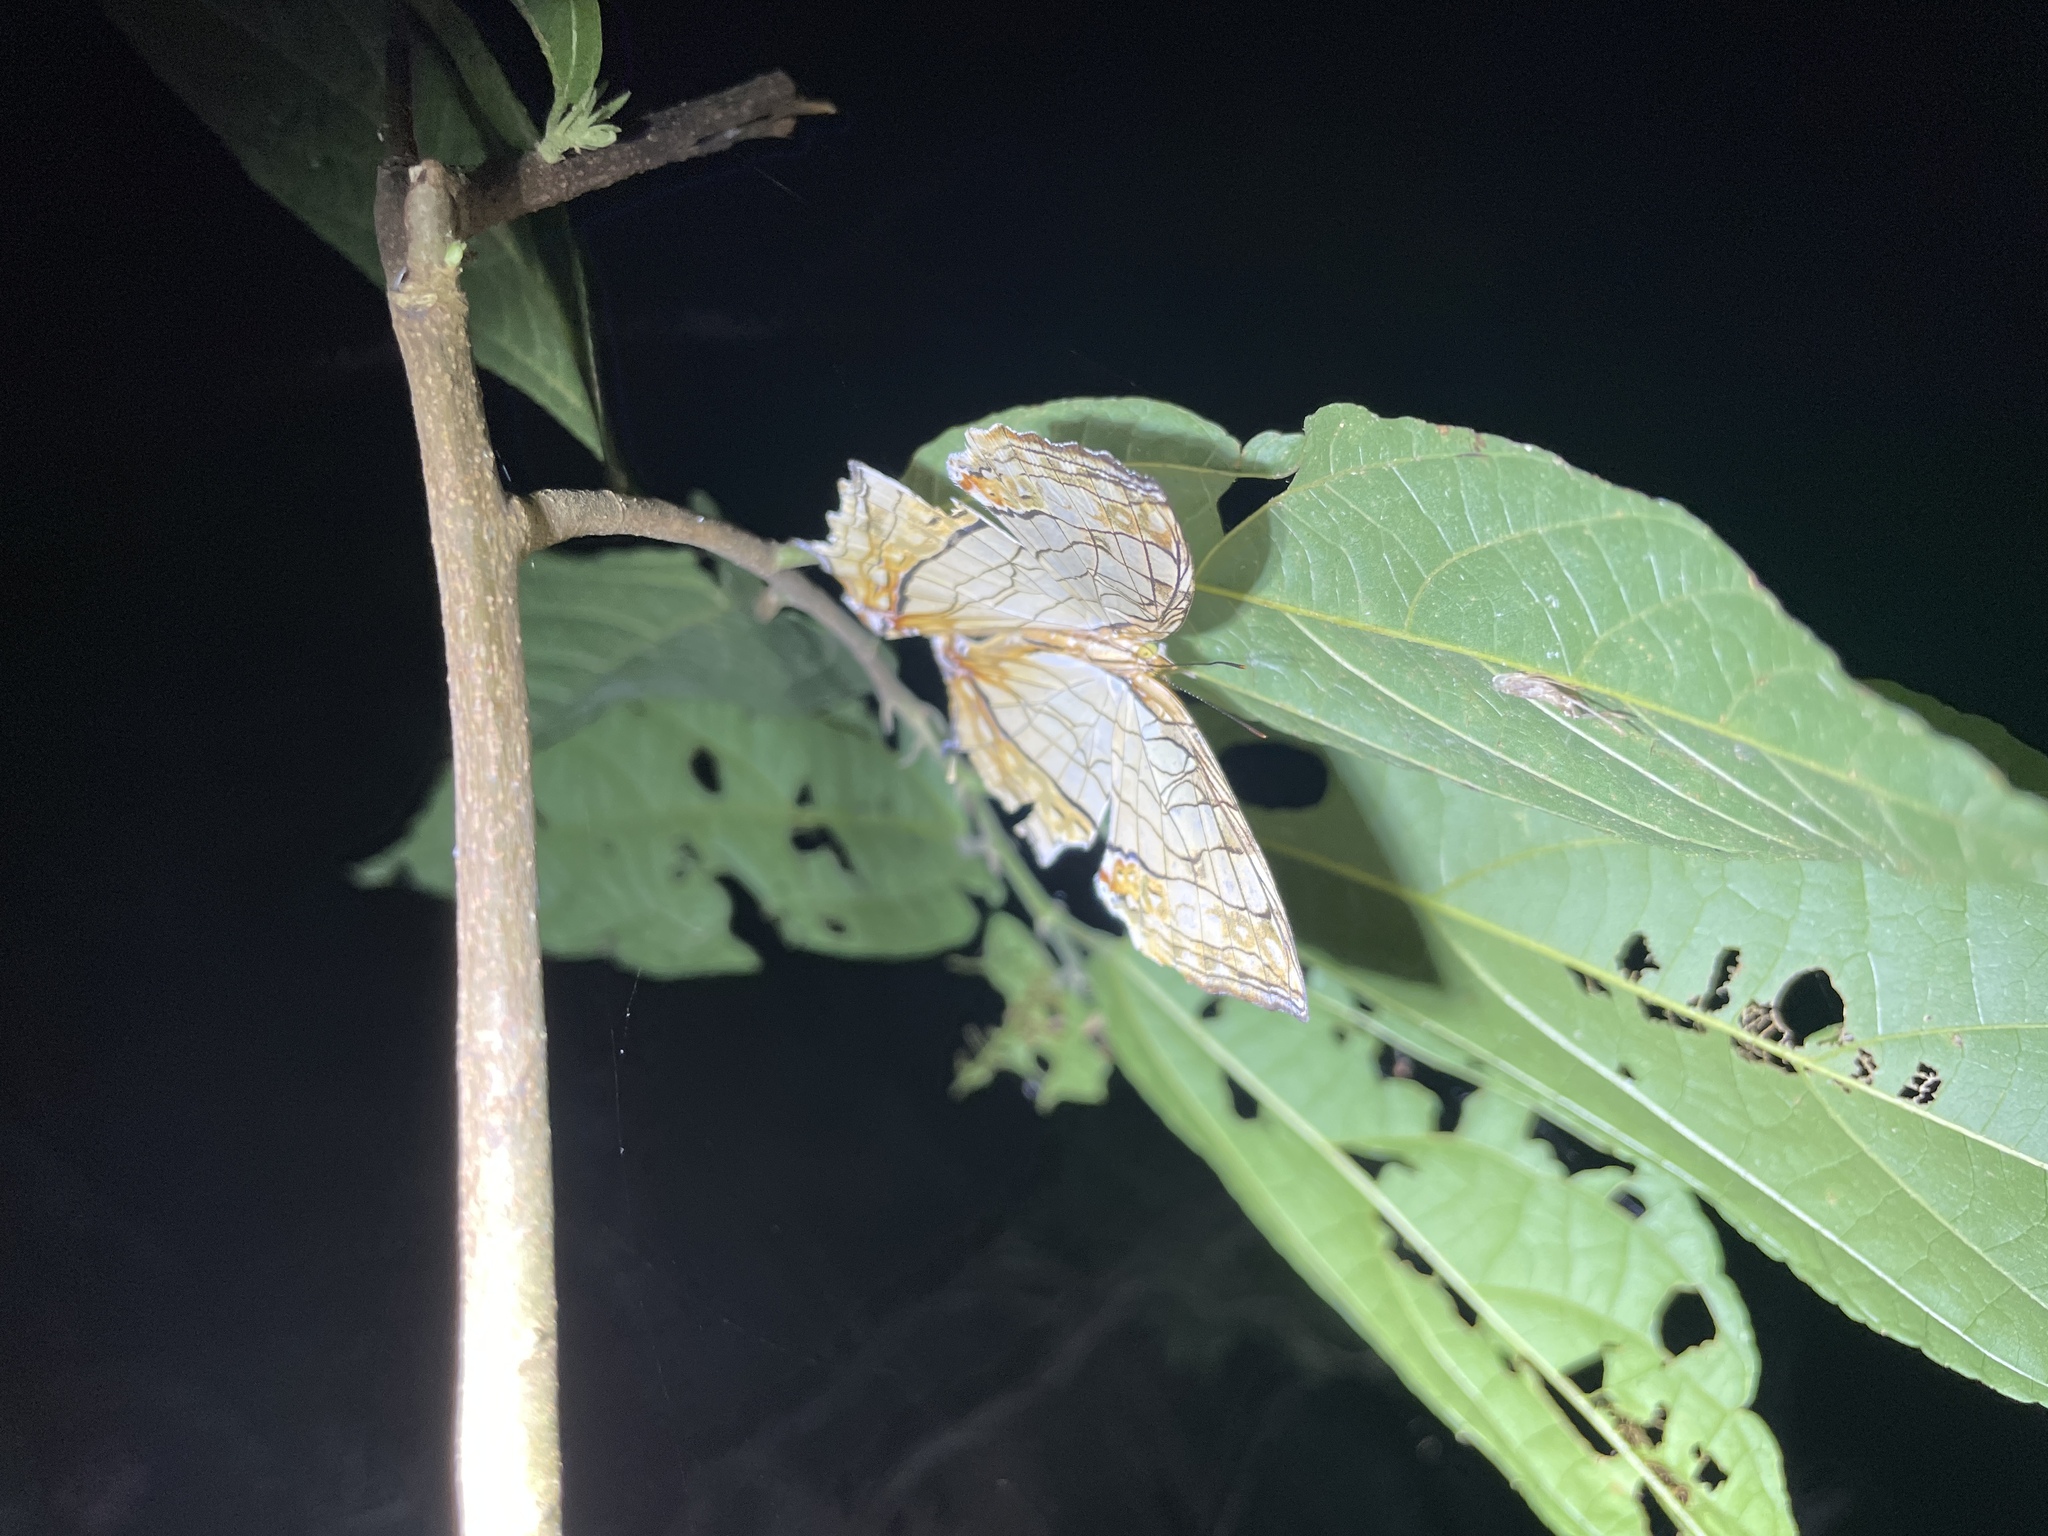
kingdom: Animalia
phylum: Arthropoda
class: Insecta
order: Lepidoptera
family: Nymphalidae
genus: Cyrestis
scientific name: Cyrestis thyodamas
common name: Common mapwing
